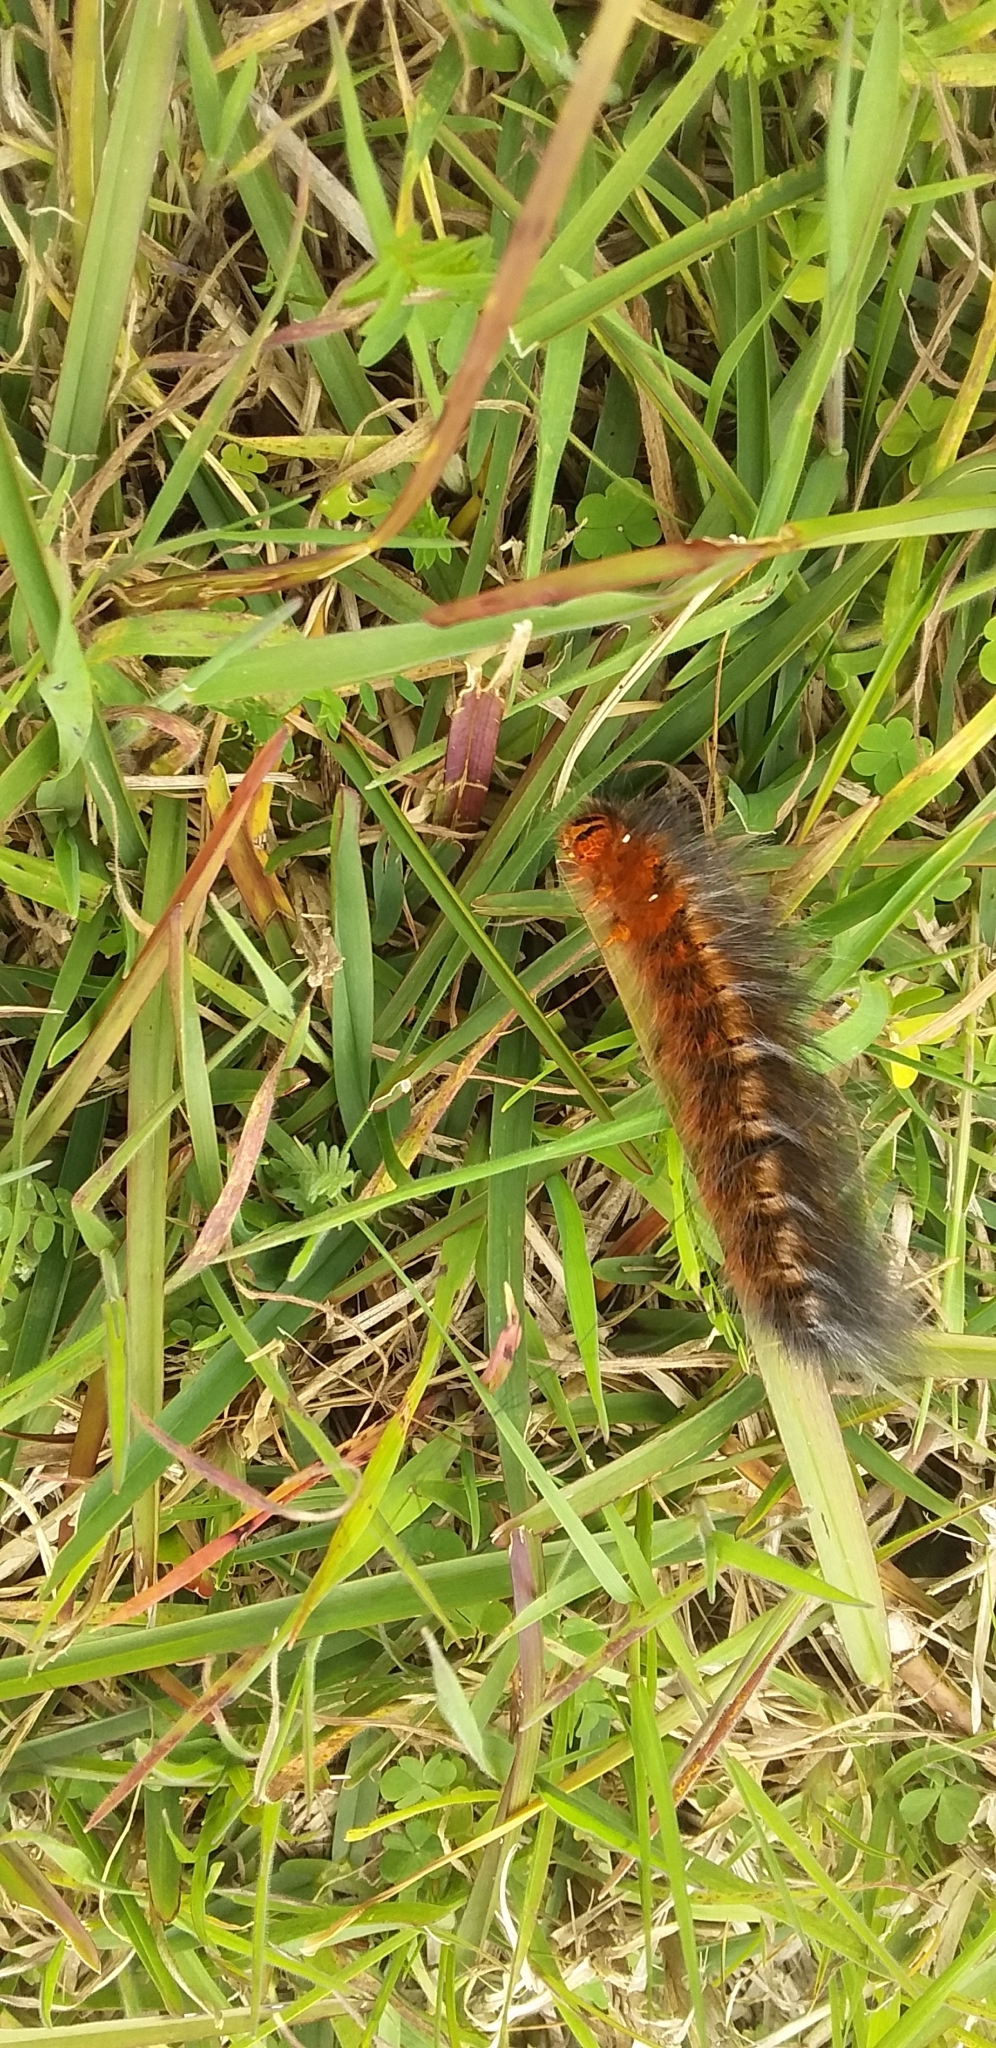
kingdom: Animalia
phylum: Arthropoda
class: Insecta
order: Lepidoptera
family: Lasiocampidae
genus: Mesocelis
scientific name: Mesocelis monticola
